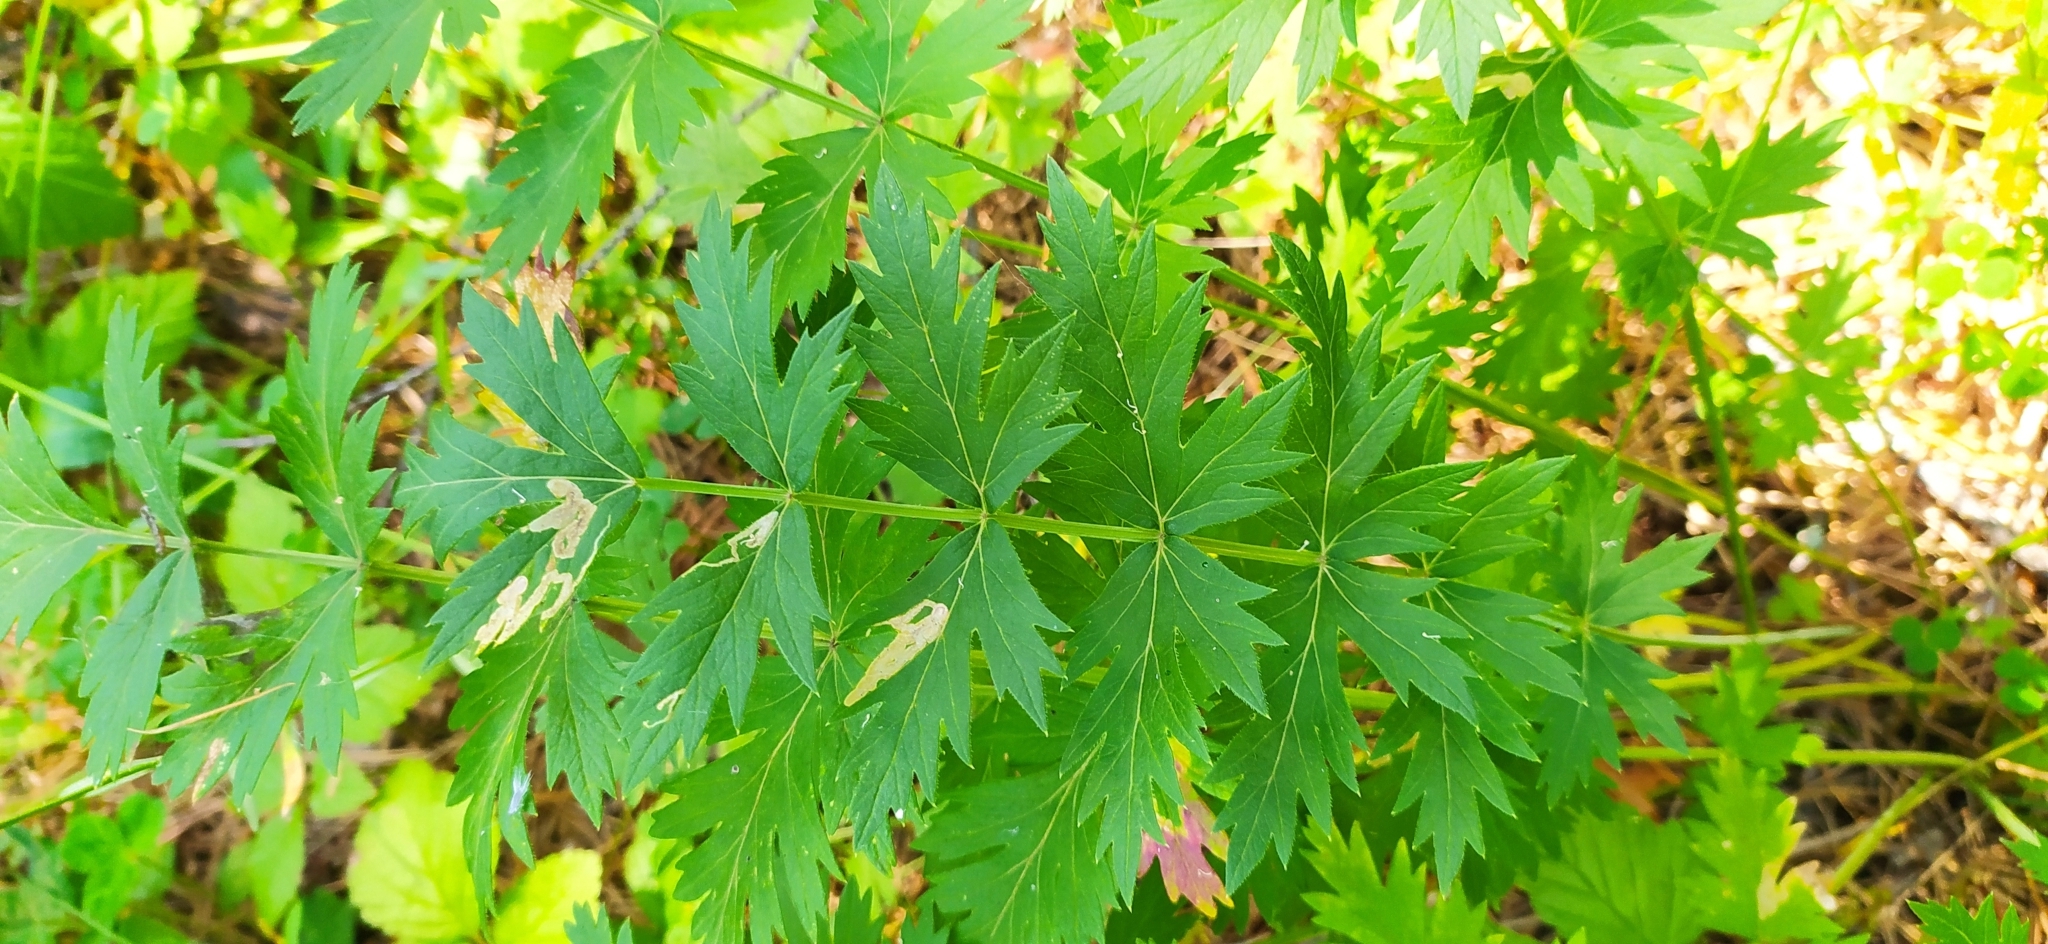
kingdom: Plantae
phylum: Tracheophyta
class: Magnoliopsida
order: Apiales
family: Apiaceae
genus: Seseli
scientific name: Seseli krylovii
